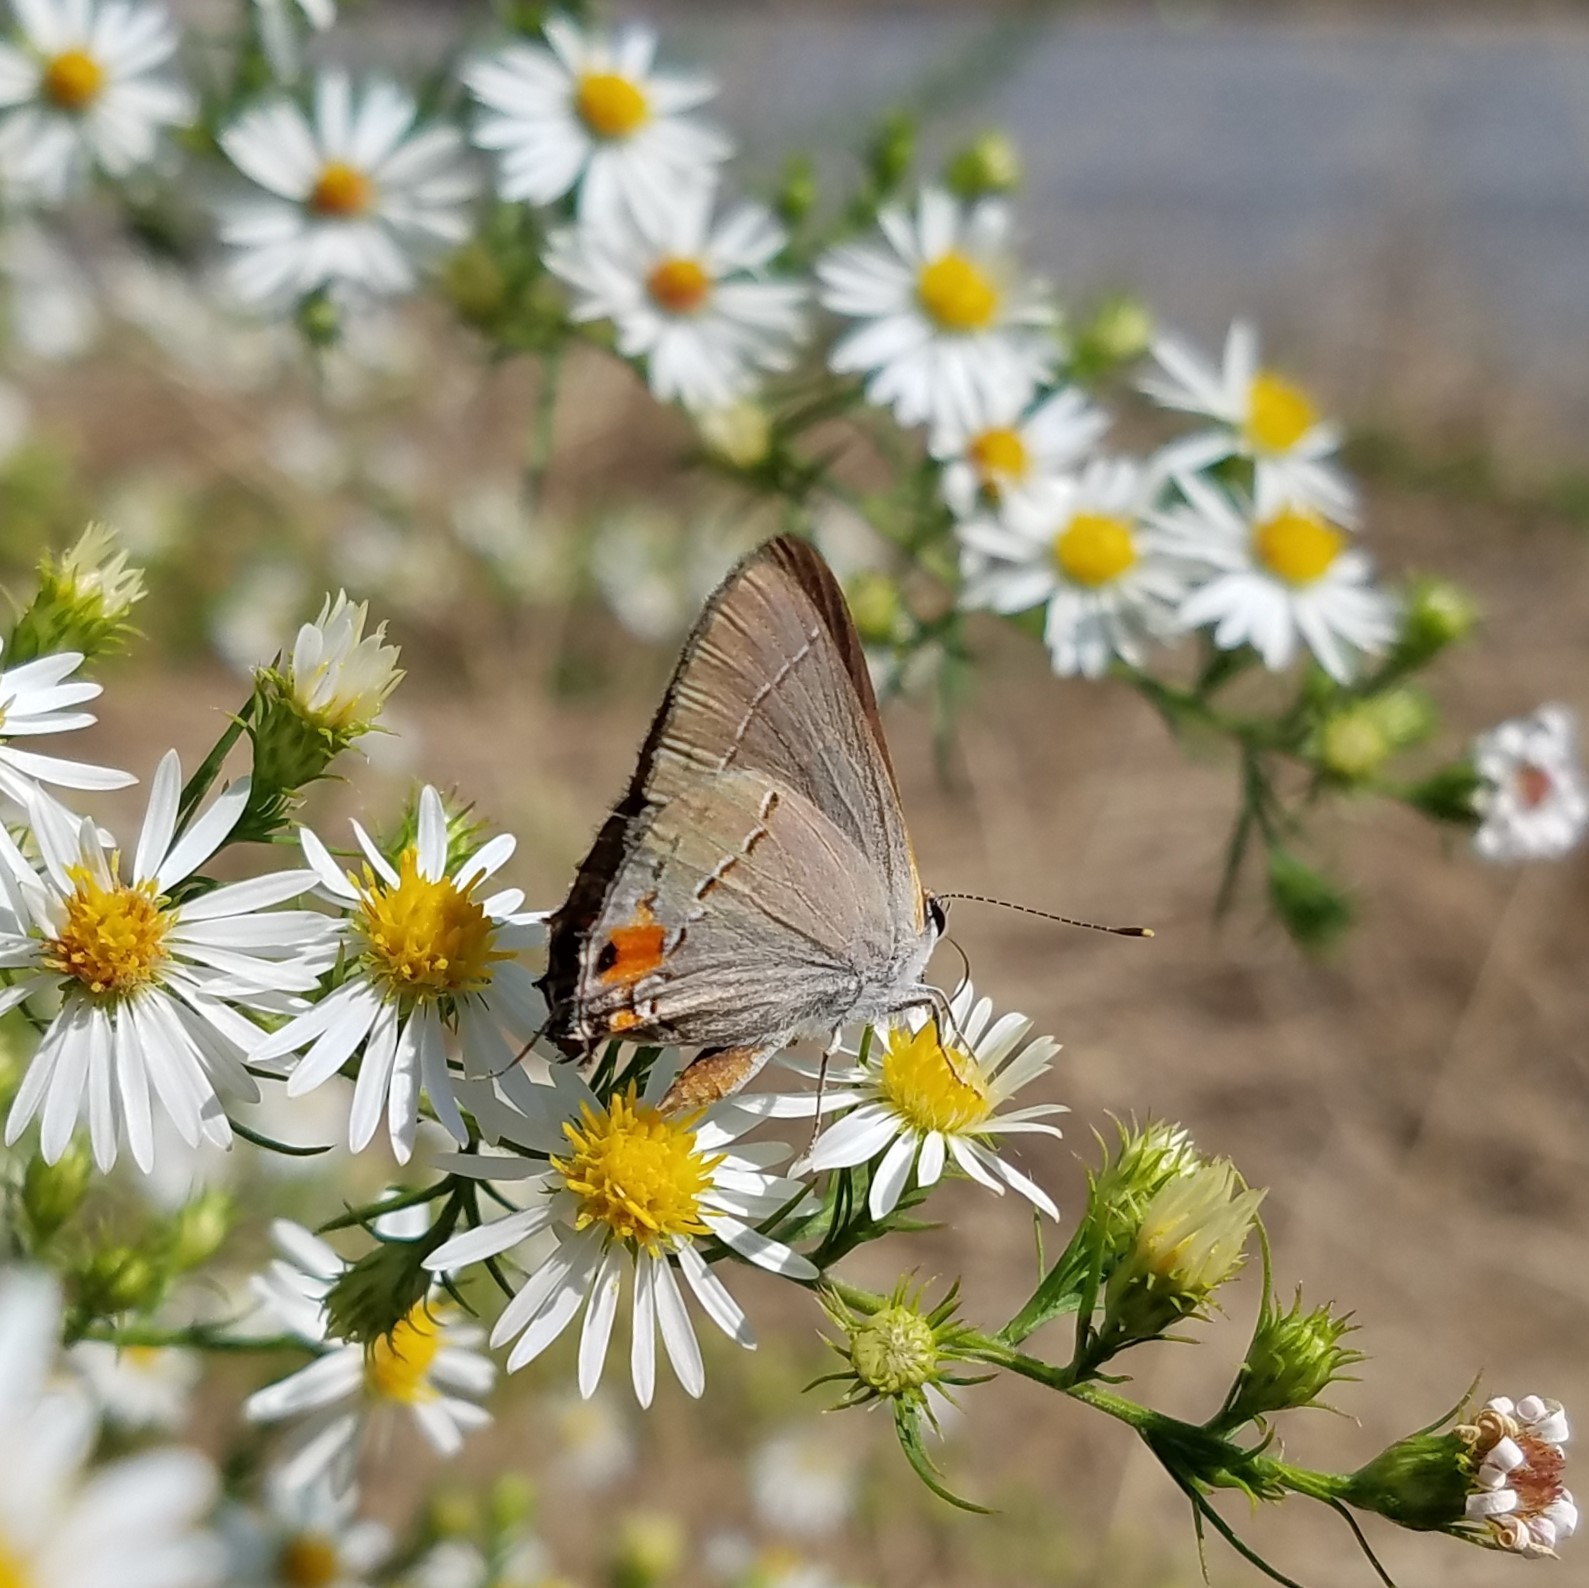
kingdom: Animalia
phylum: Arthropoda
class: Insecta
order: Lepidoptera
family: Lycaenidae
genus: Strymon
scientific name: Strymon melinus
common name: Gray hairstreak
